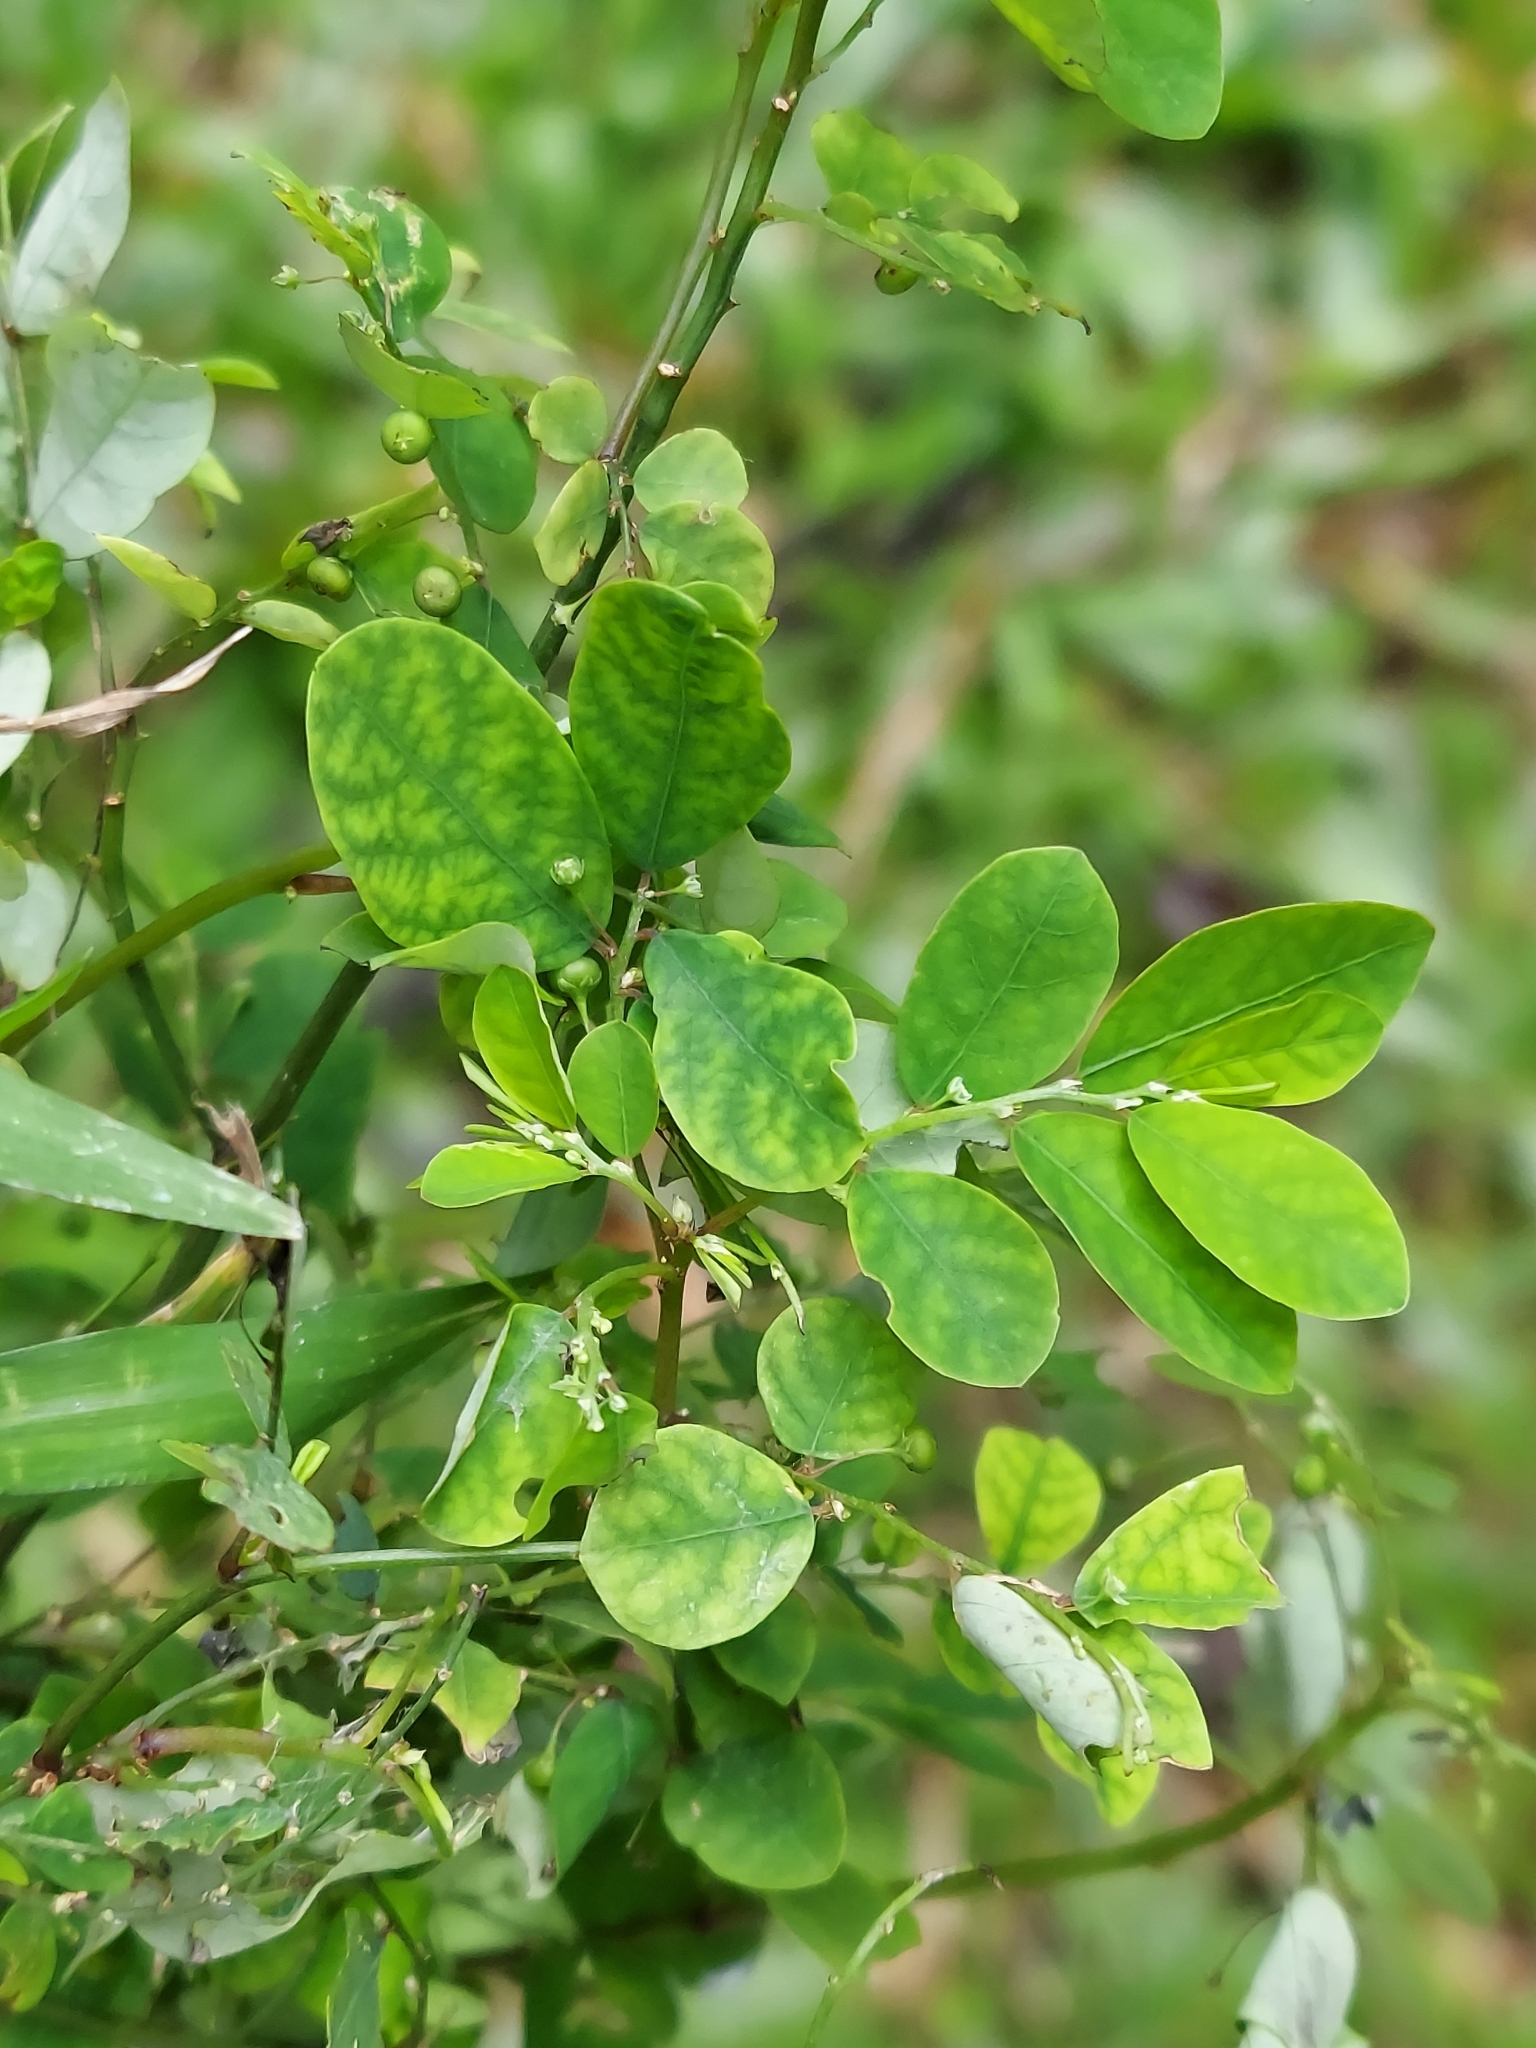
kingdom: Plantae
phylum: Tracheophyta
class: Magnoliopsida
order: Malpighiales
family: Phyllanthaceae
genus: Phyllanthus
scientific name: Phyllanthus tenellus
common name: Mascarene island leaf-flower
